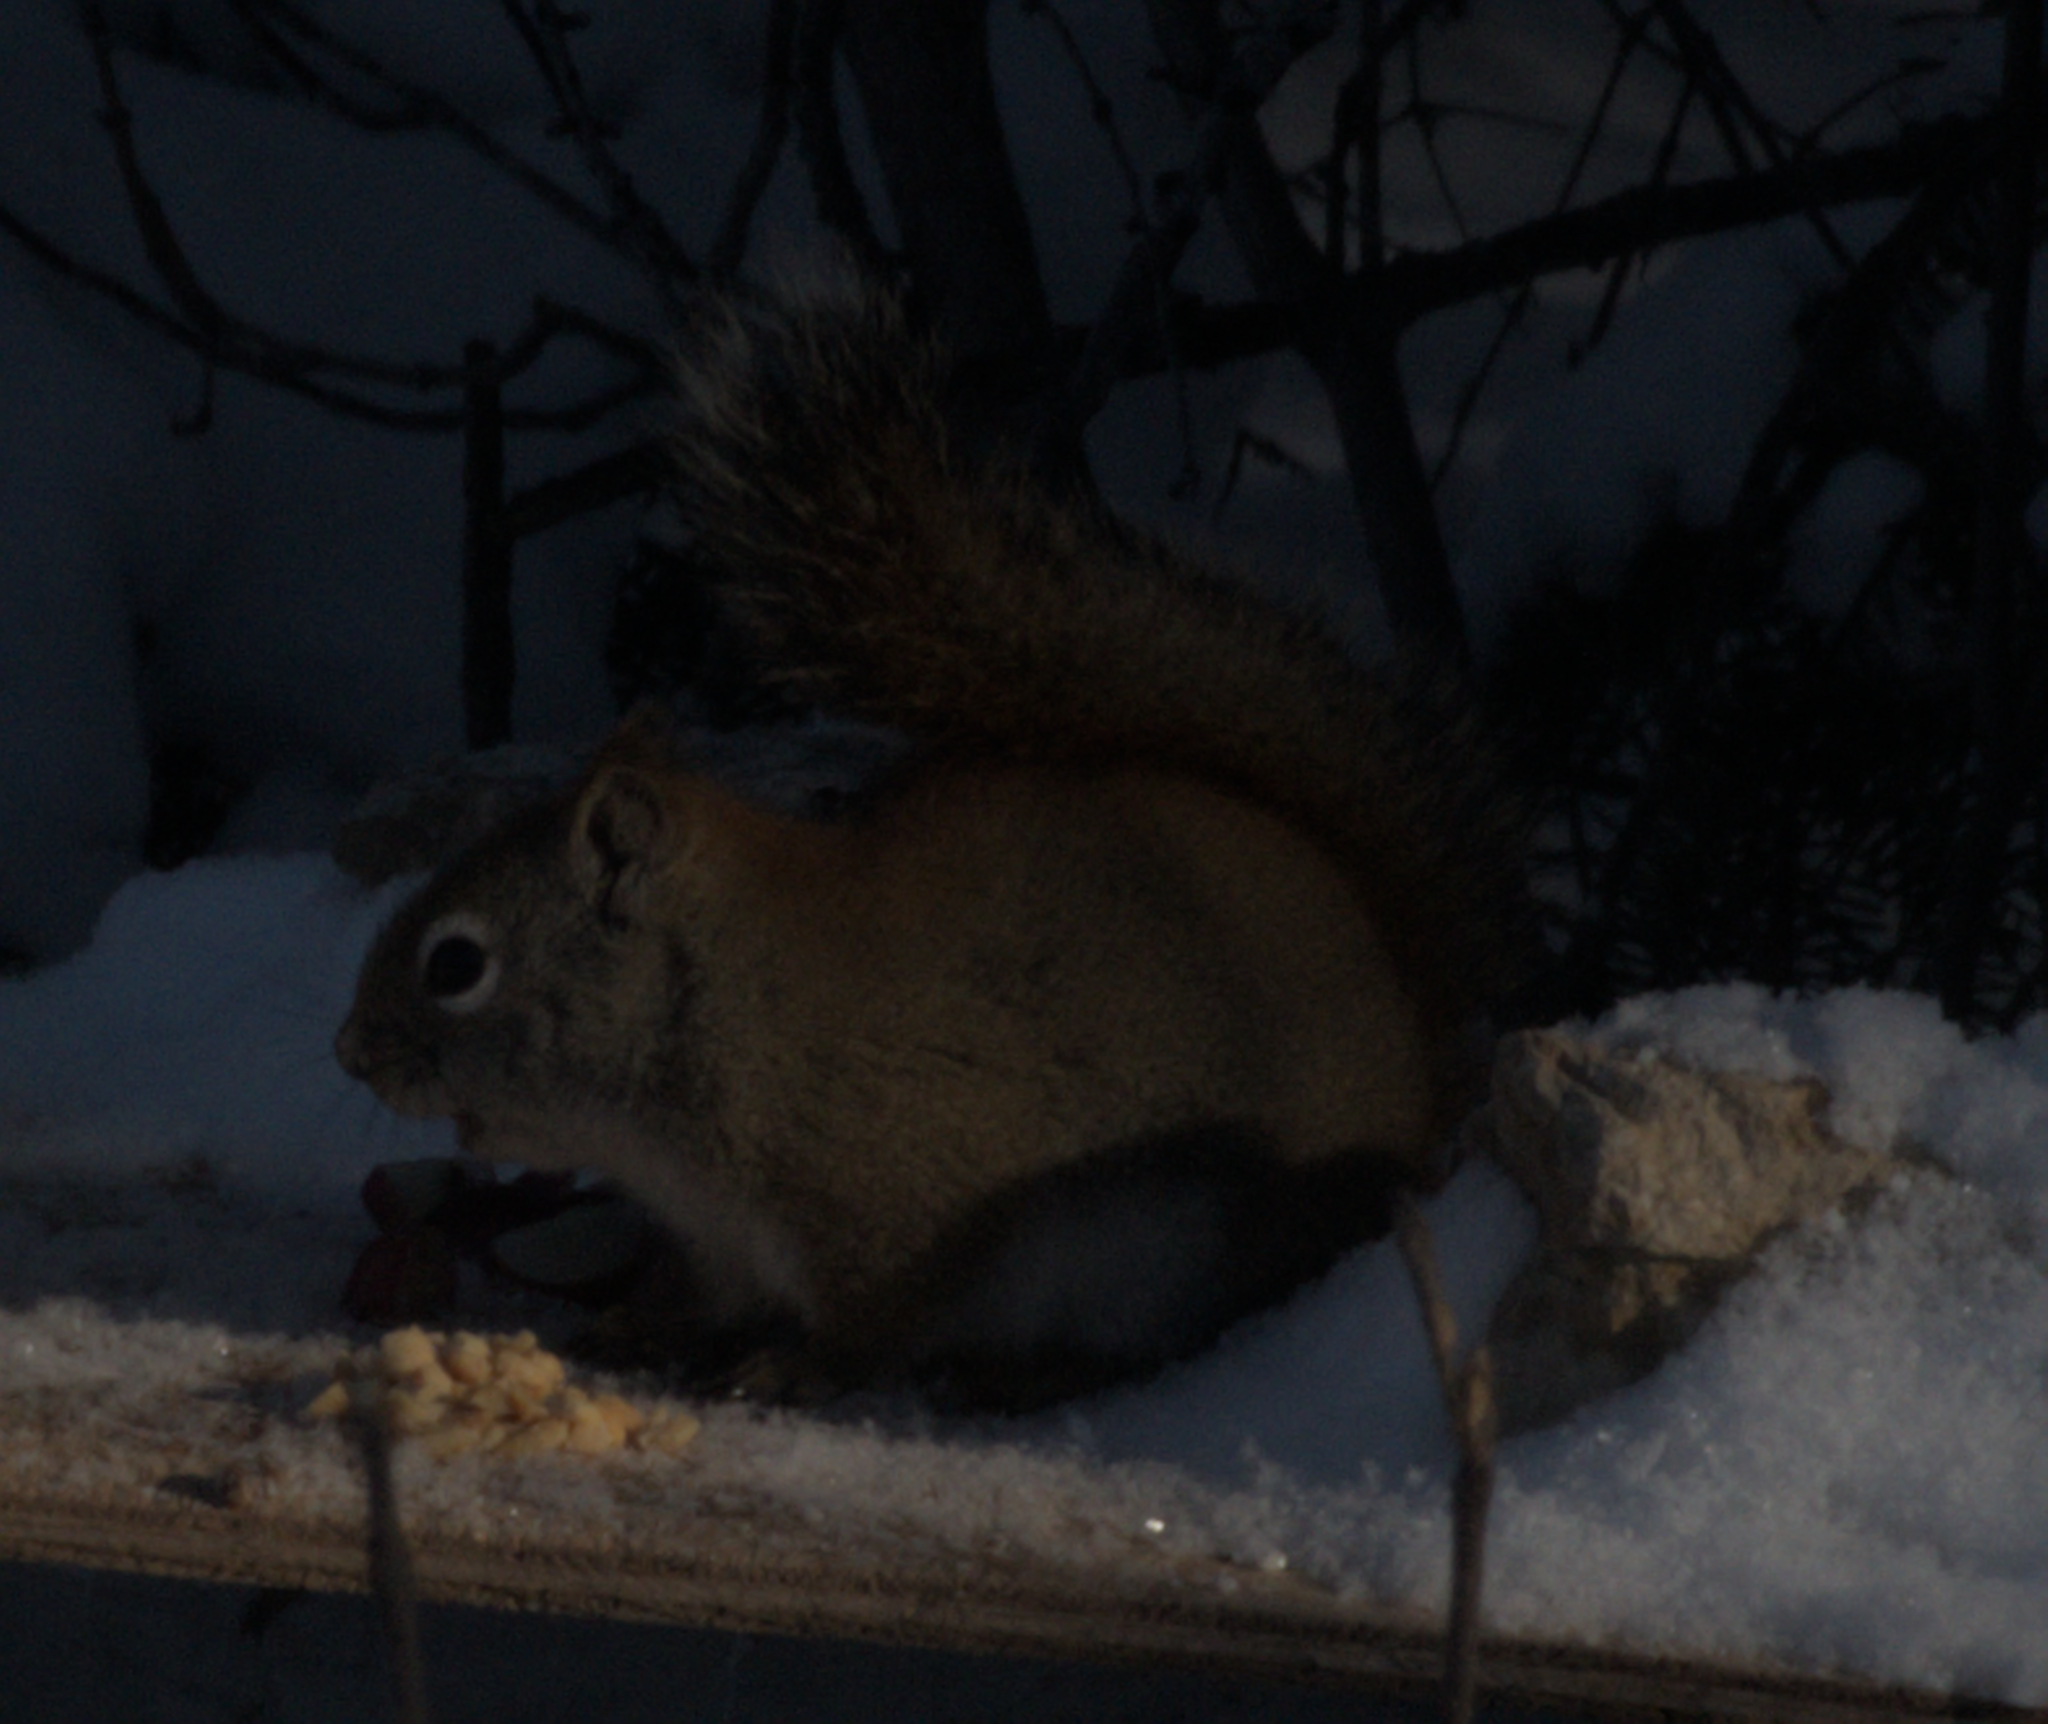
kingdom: Animalia
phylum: Chordata
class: Mammalia
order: Rodentia
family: Sciuridae
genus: Tamiasciurus
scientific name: Tamiasciurus hudsonicus
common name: Red squirrel
